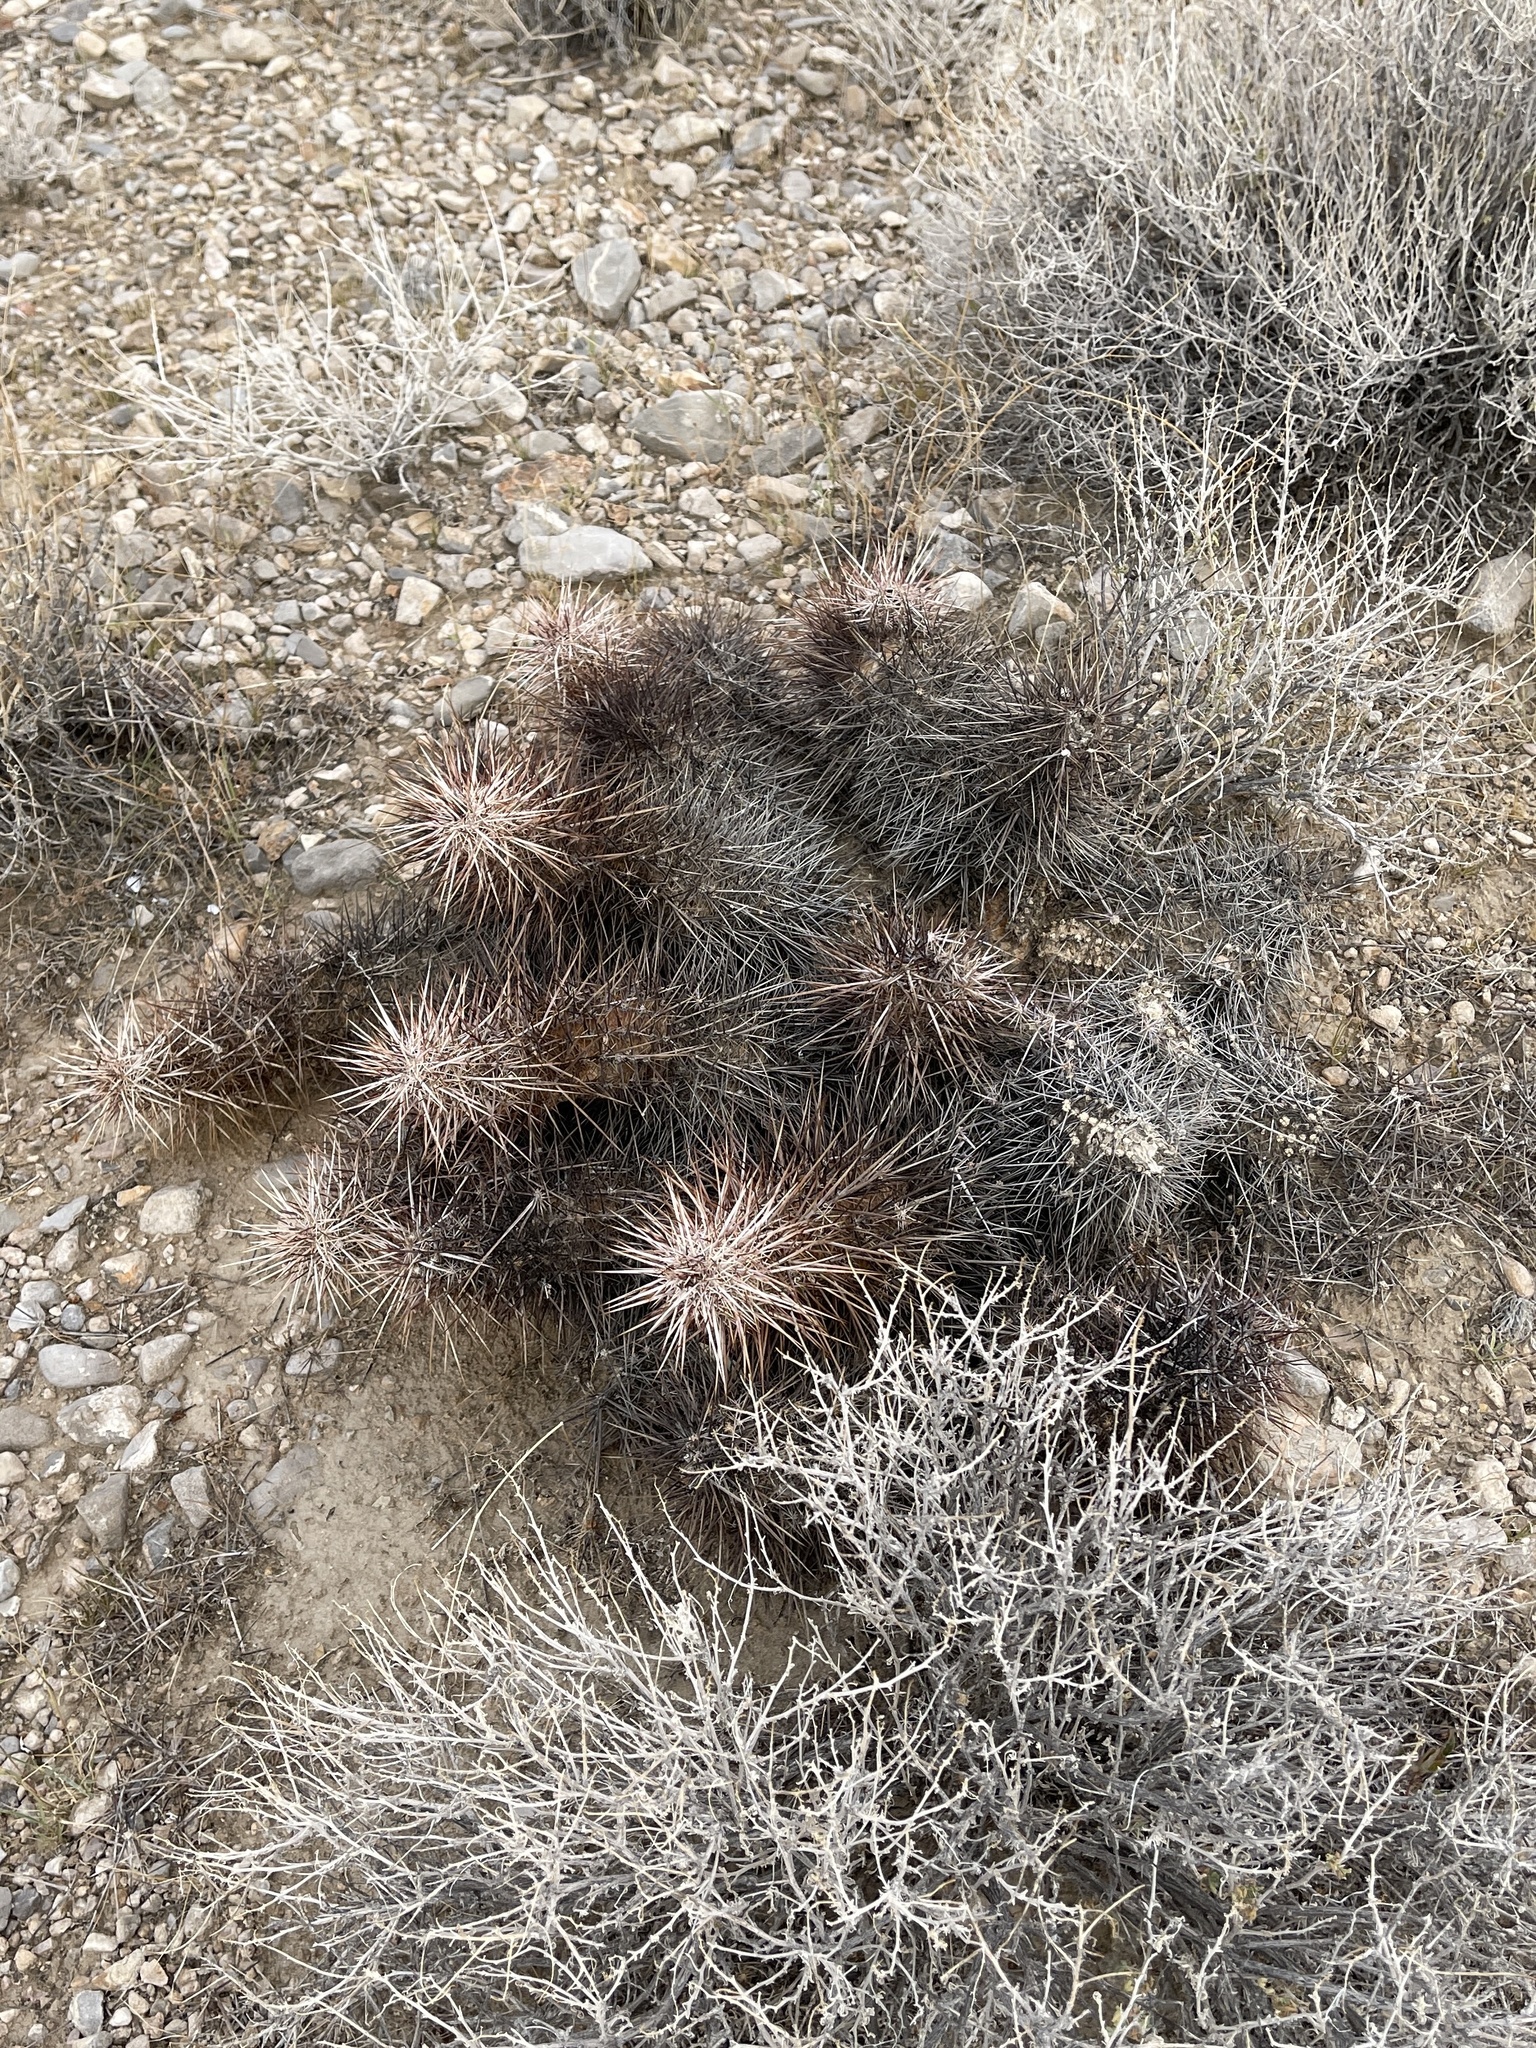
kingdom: Plantae
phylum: Tracheophyta
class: Magnoliopsida
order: Caryophyllales
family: Cactaceae
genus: Echinocereus
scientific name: Echinocereus engelmannii
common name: Engelmann's hedgehog cactus
